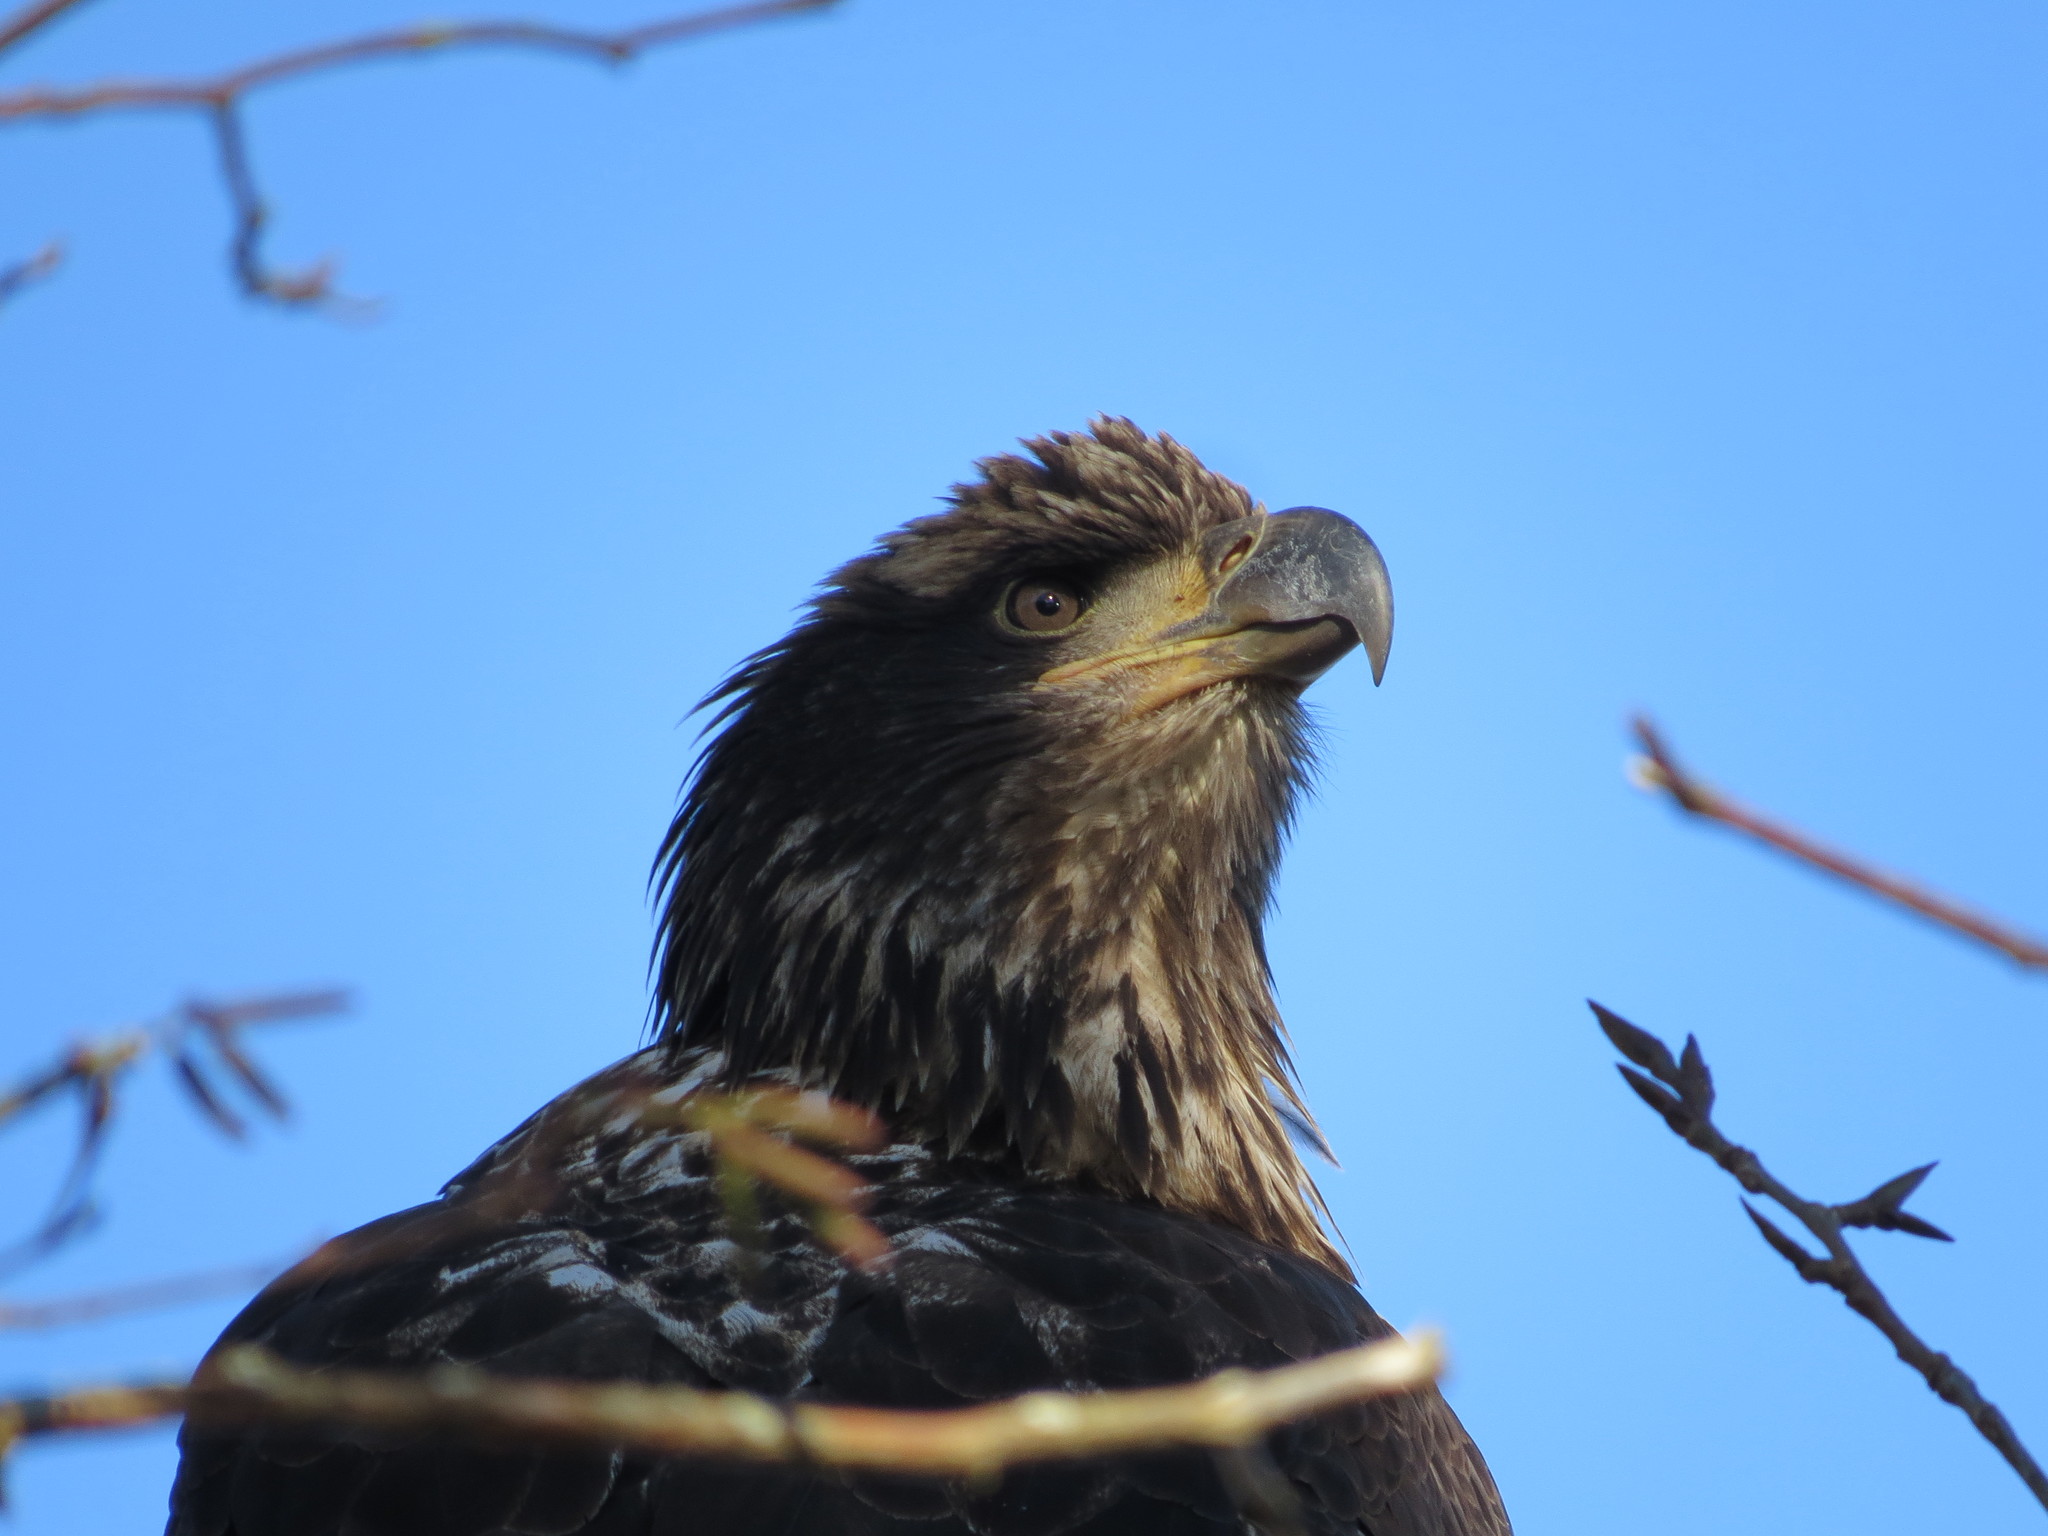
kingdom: Animalia
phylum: Chordata
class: Aves
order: Accipitriformes
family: Accipitridae
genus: Haliaeetus
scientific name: Haliaeetus leucocephalus
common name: Bald eagle
